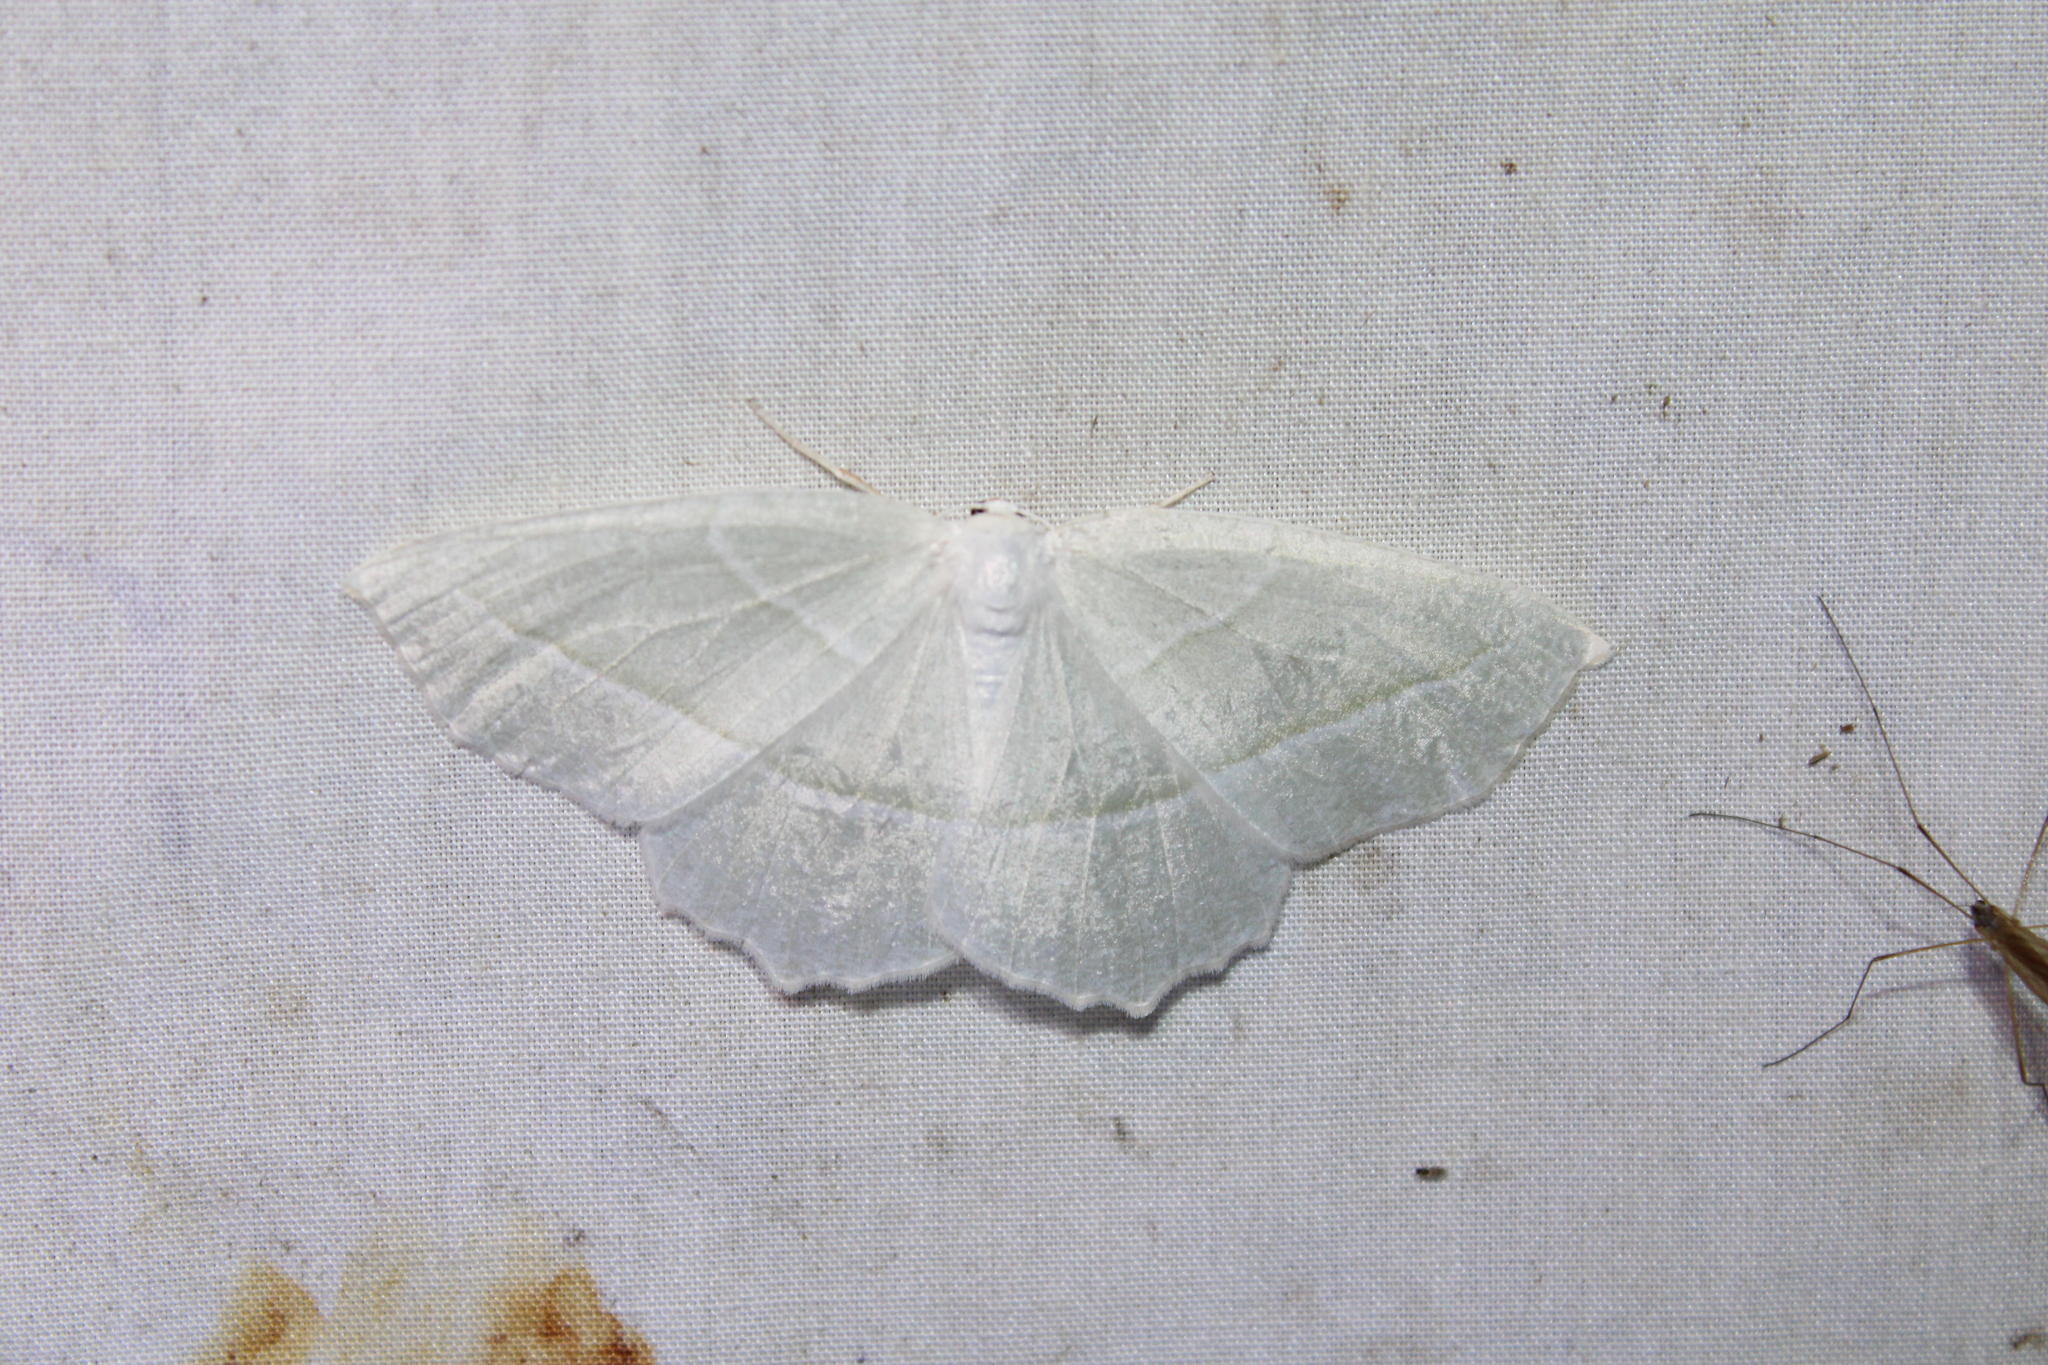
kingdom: Animalia
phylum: Arthropoda
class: Insecta
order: Lepidoptera
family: Geometridae
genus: Campaea
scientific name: Campaea perlata
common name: Fringed looper
